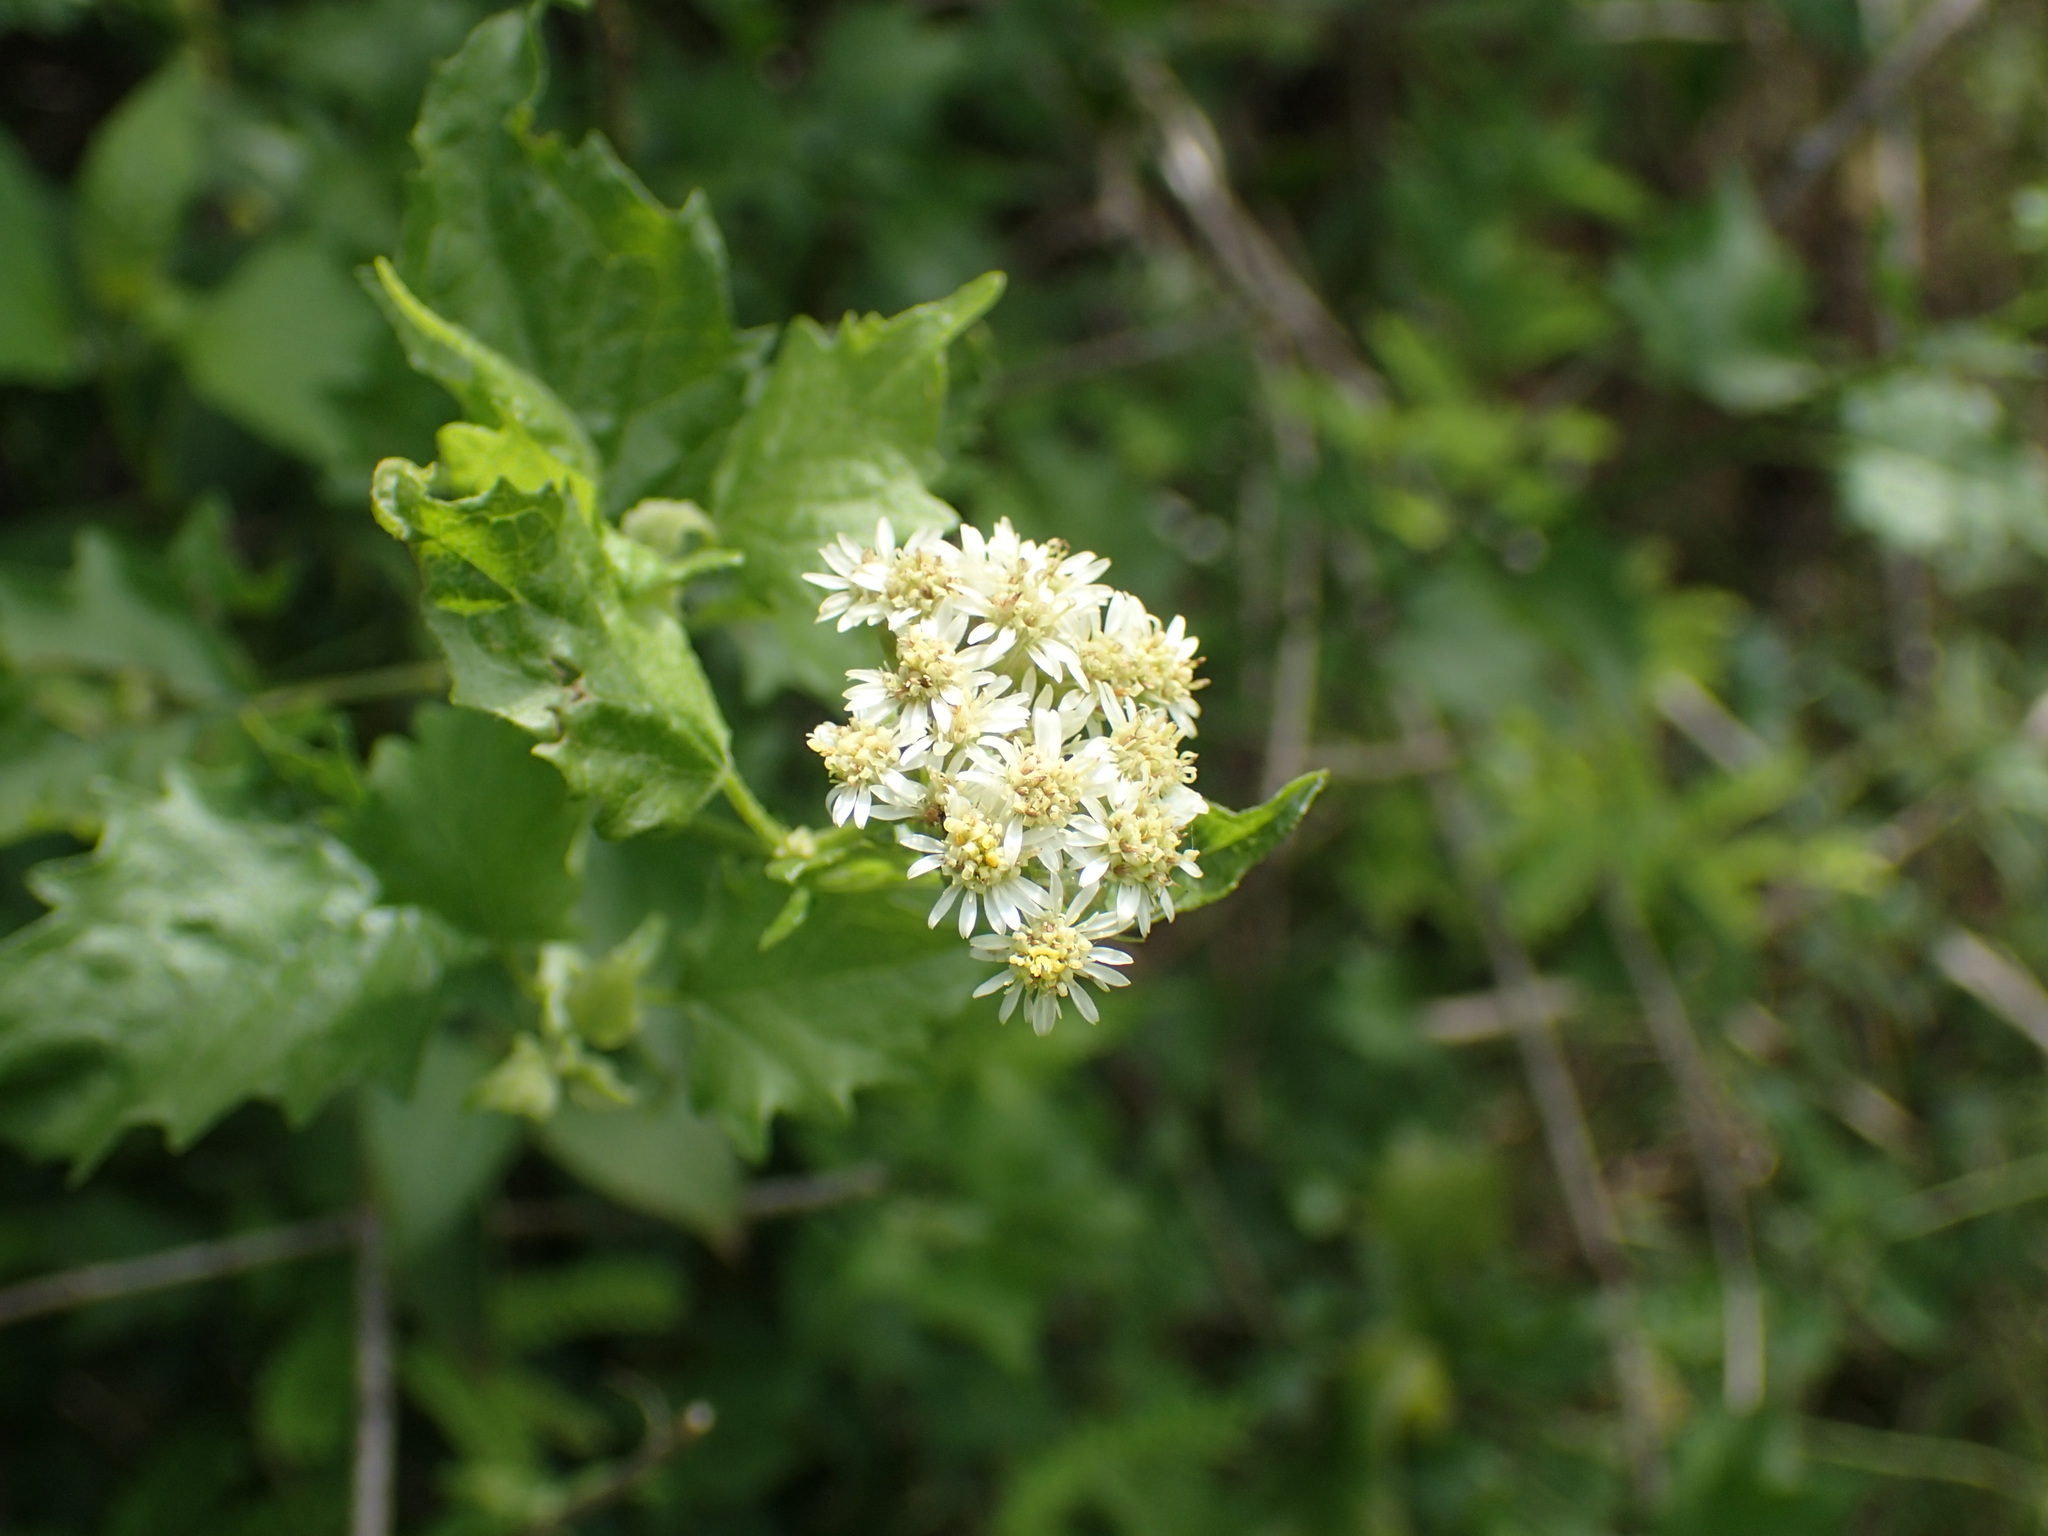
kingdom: Plantae
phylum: Tracheophyta
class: Magnoliopsida
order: Asterales
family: Asteraceae
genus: Microglossa
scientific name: Microglossa mespilifolia
